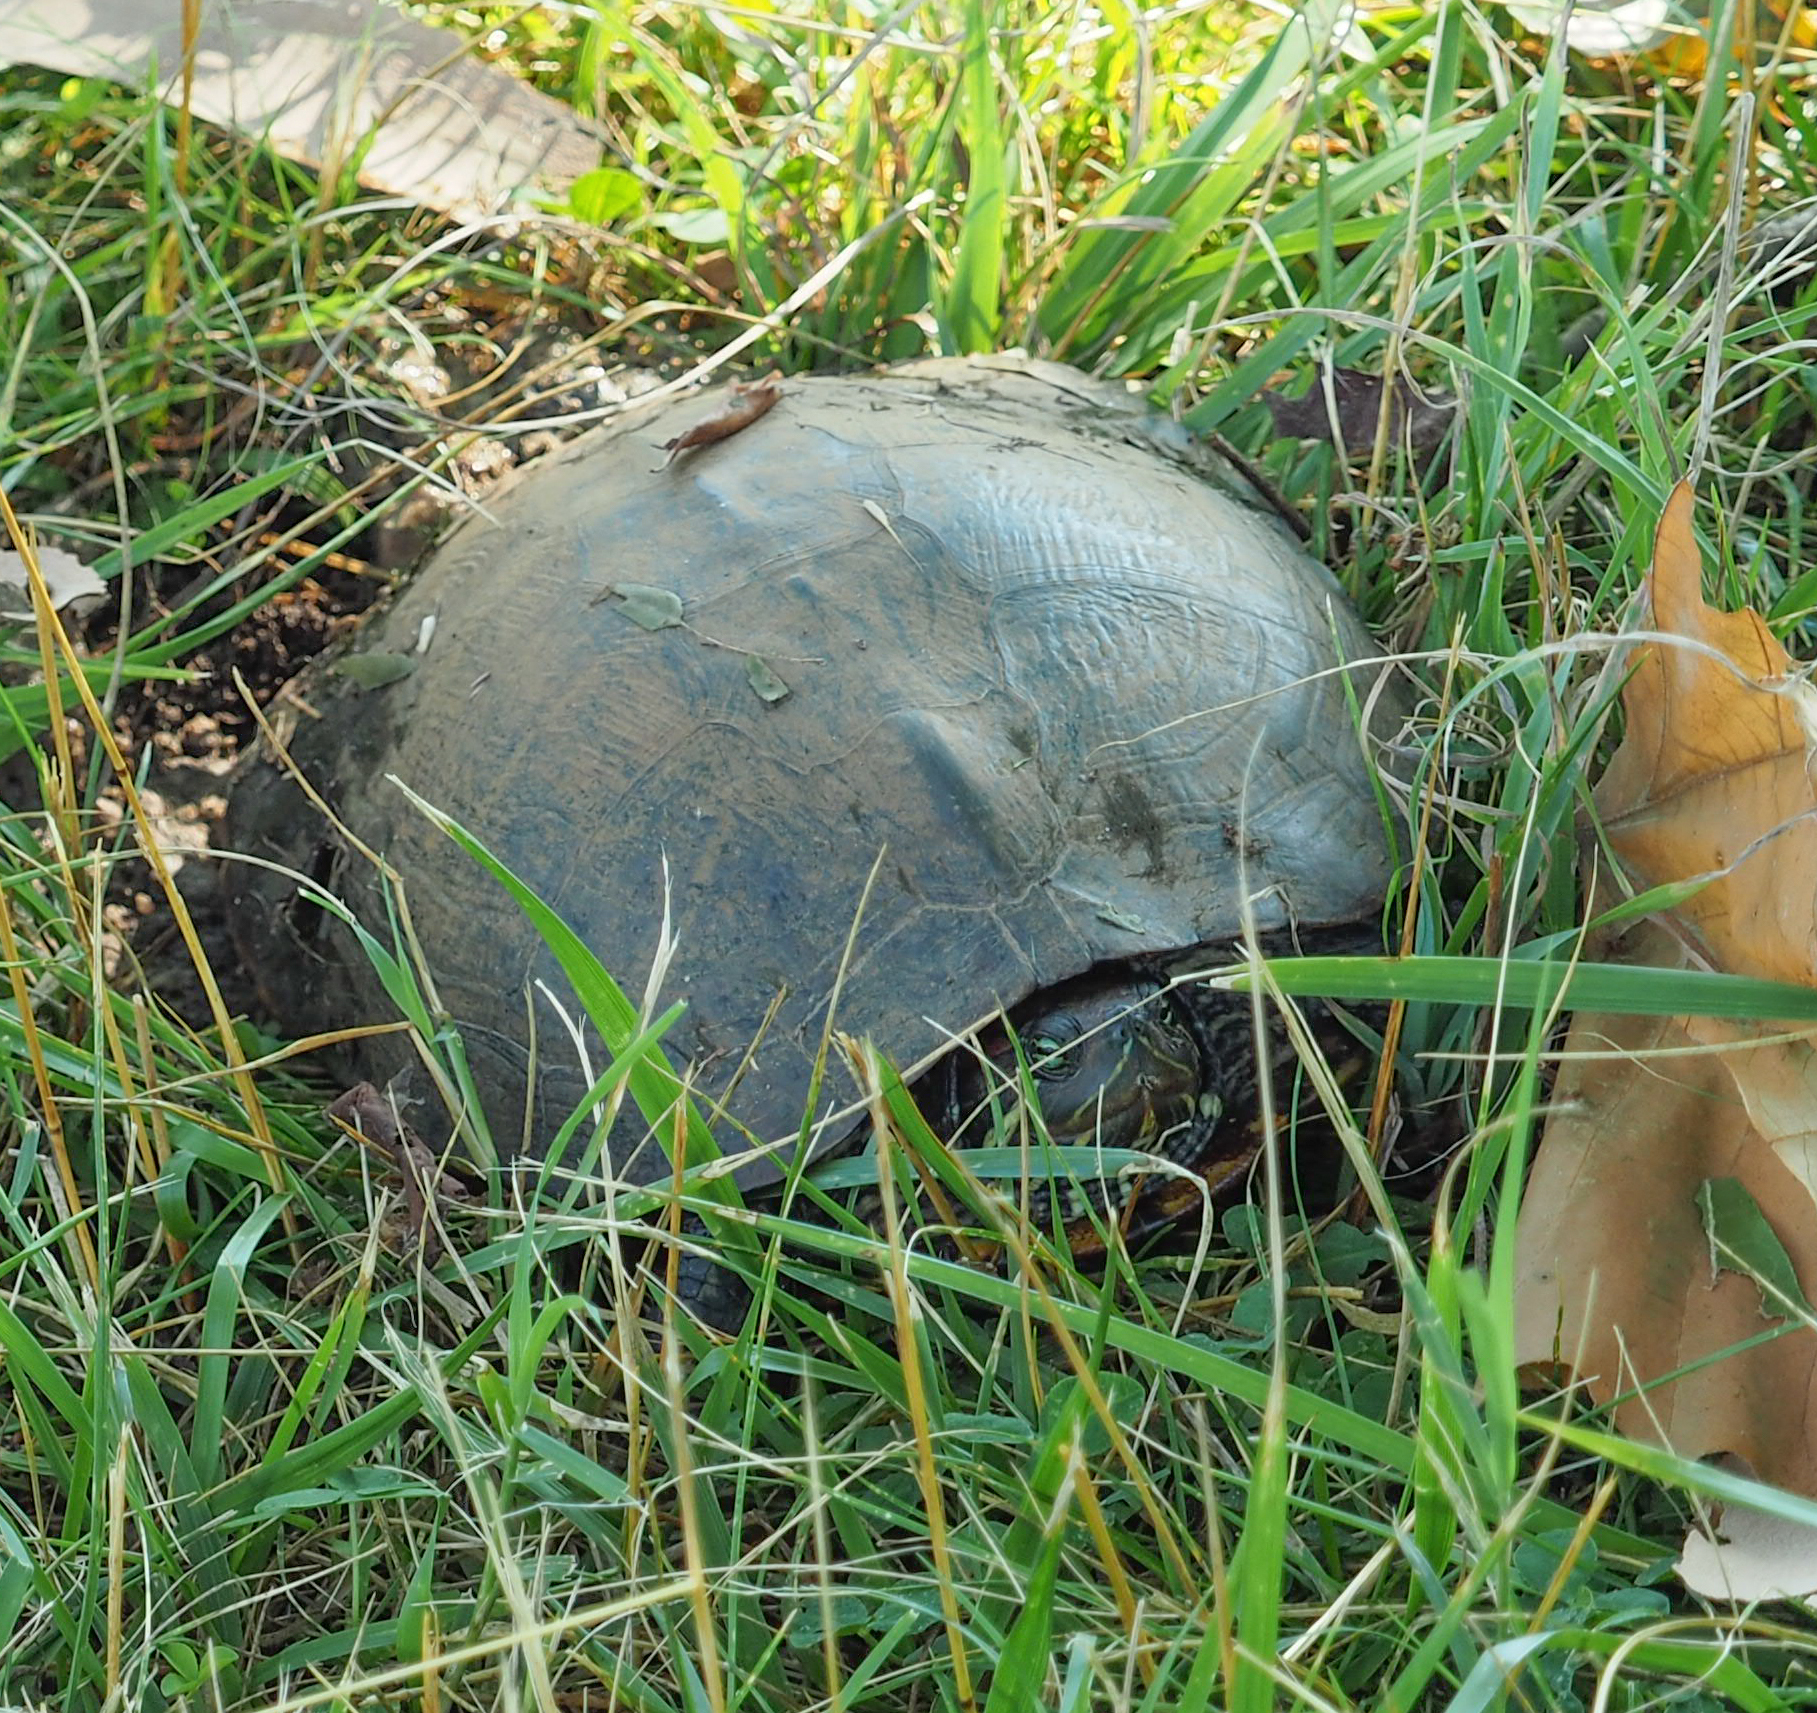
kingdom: Animalia
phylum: Chordata
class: Testudines
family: Emydidae
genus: Trachemys
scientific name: Trachemys scripta
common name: Slider
